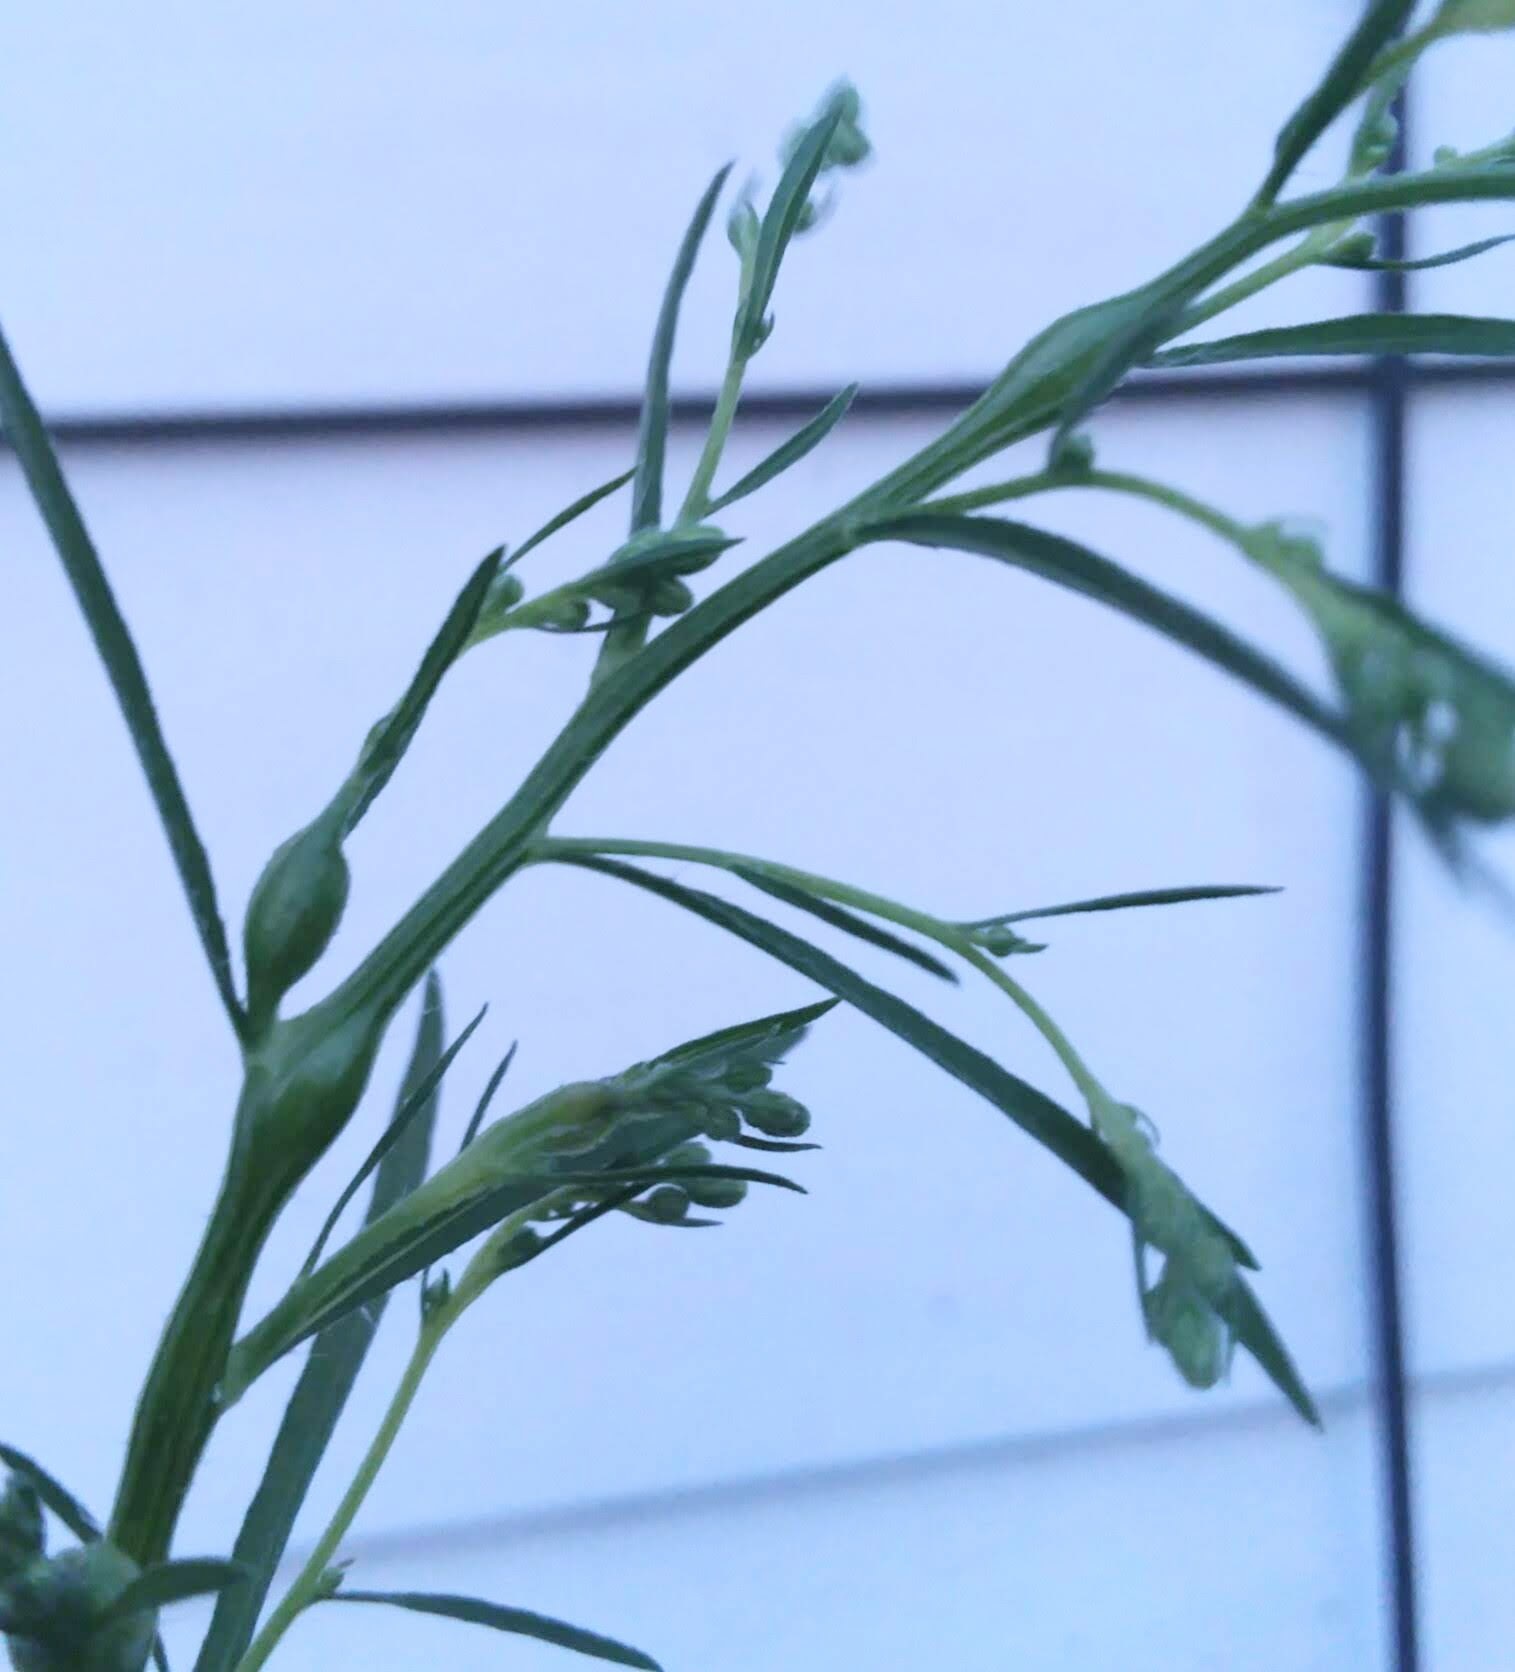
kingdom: Animalia
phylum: Arthropoda
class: Insecta
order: Diptera
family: Cecidomyiidae
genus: Neolasioptera
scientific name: Neolasioptera erigeroni
